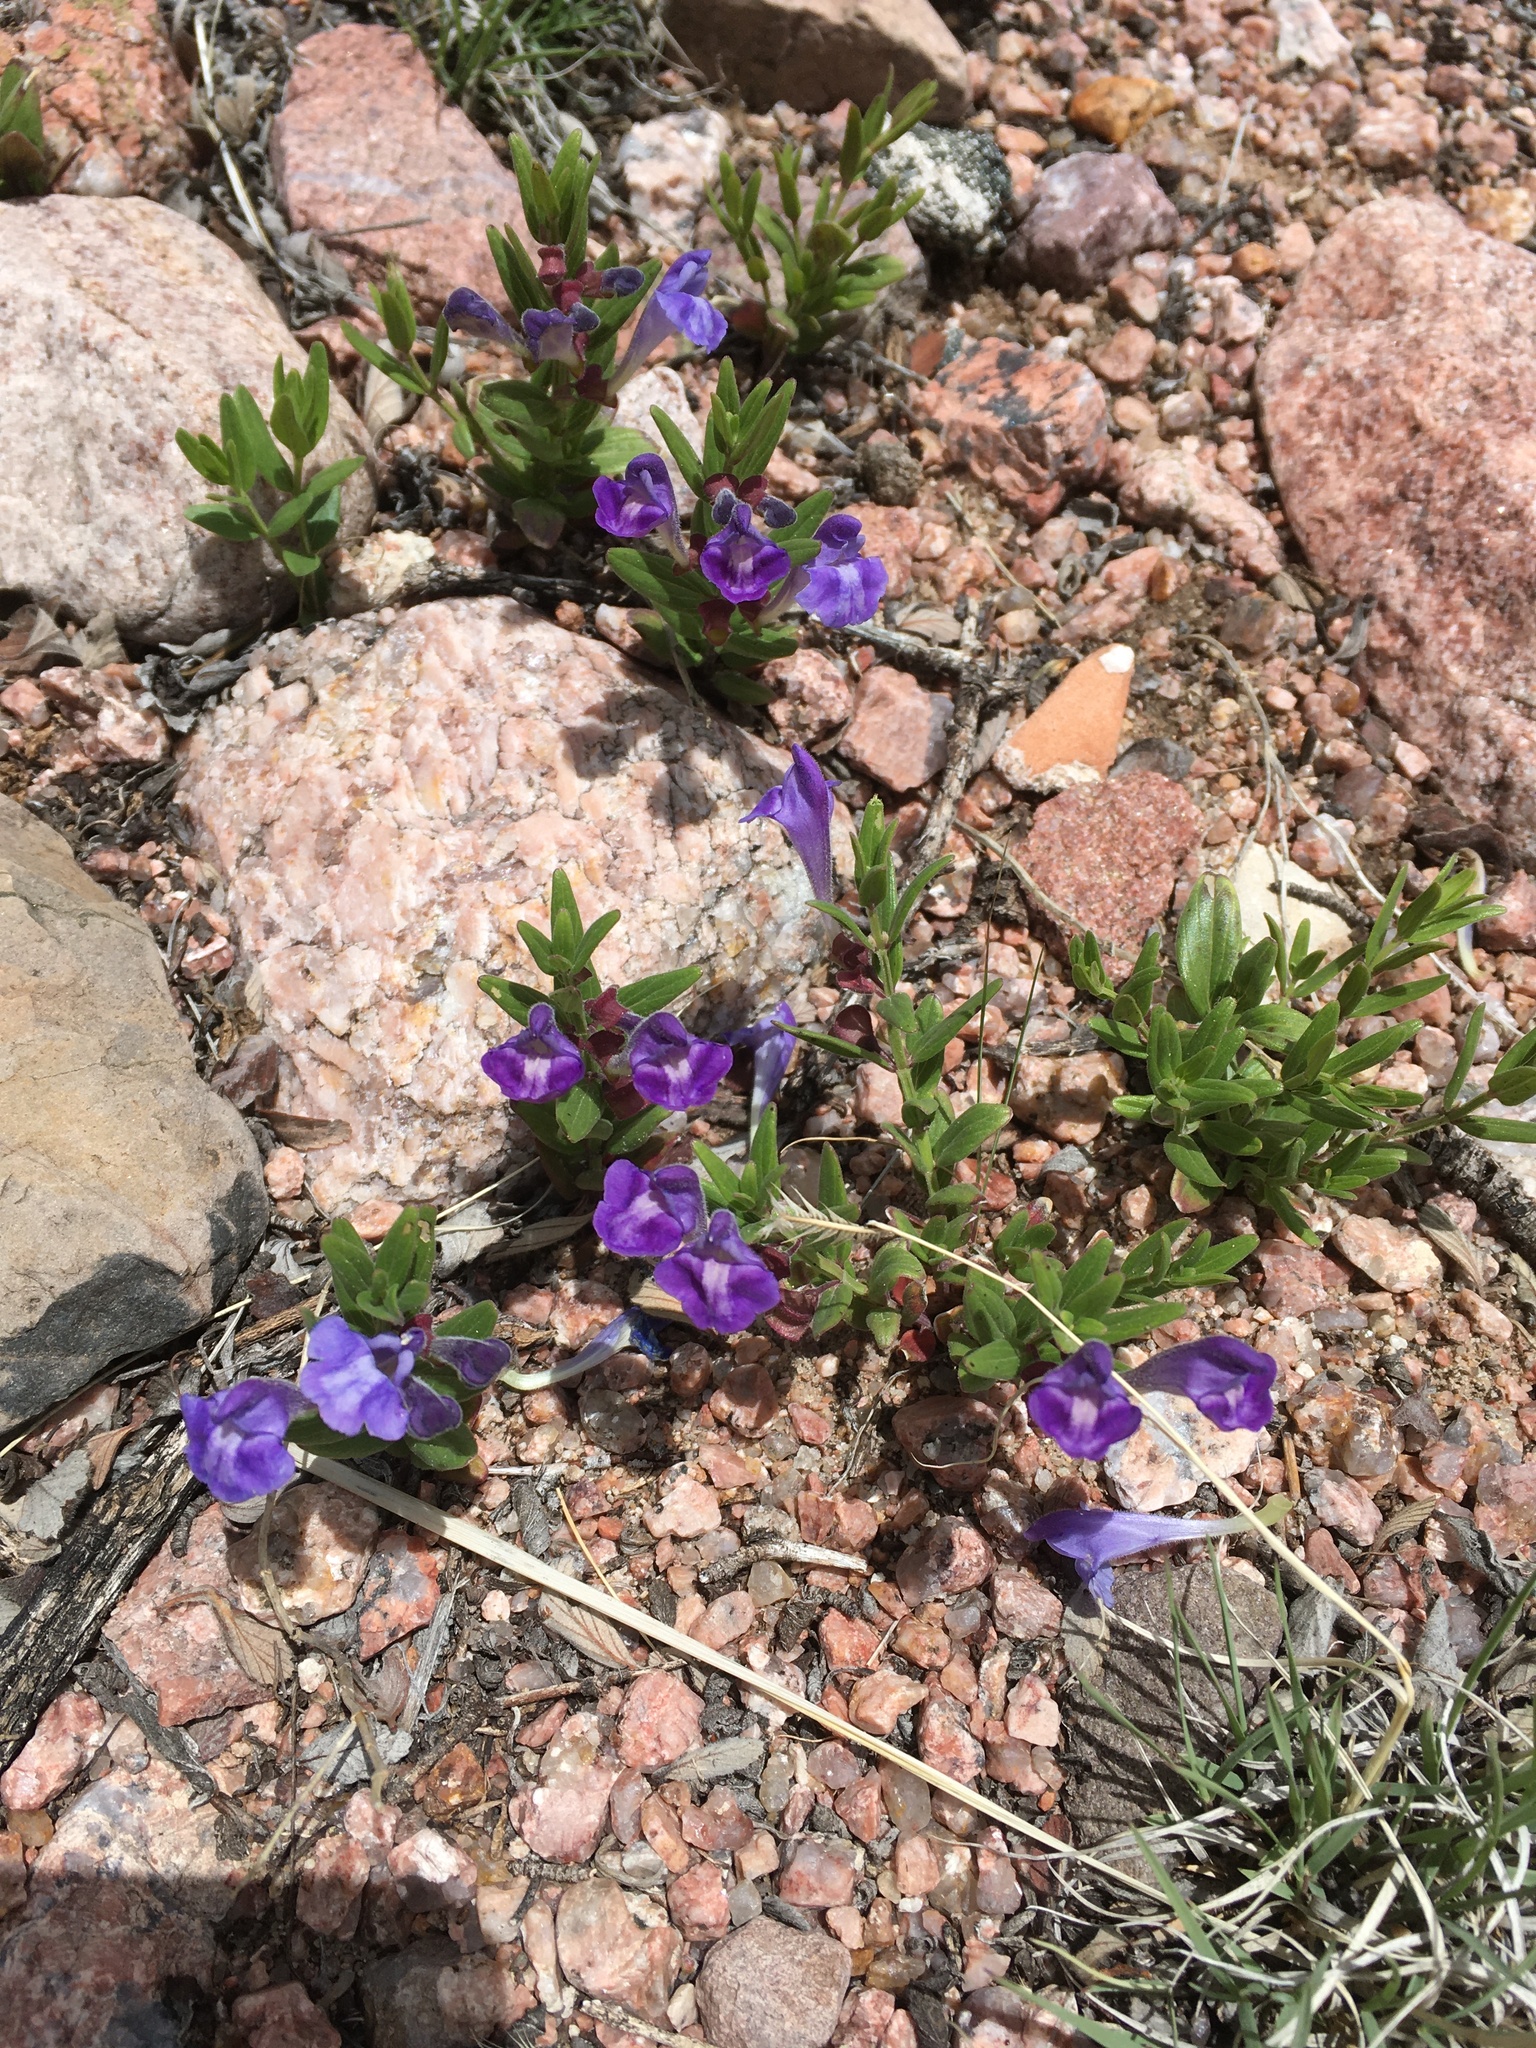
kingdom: Plantae
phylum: Tracheophyta
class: Magnoliopsida
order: Lamiales
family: Lamiaceae
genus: Scutellaria
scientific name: Scutellaria brittonii
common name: Britton's skullcap
